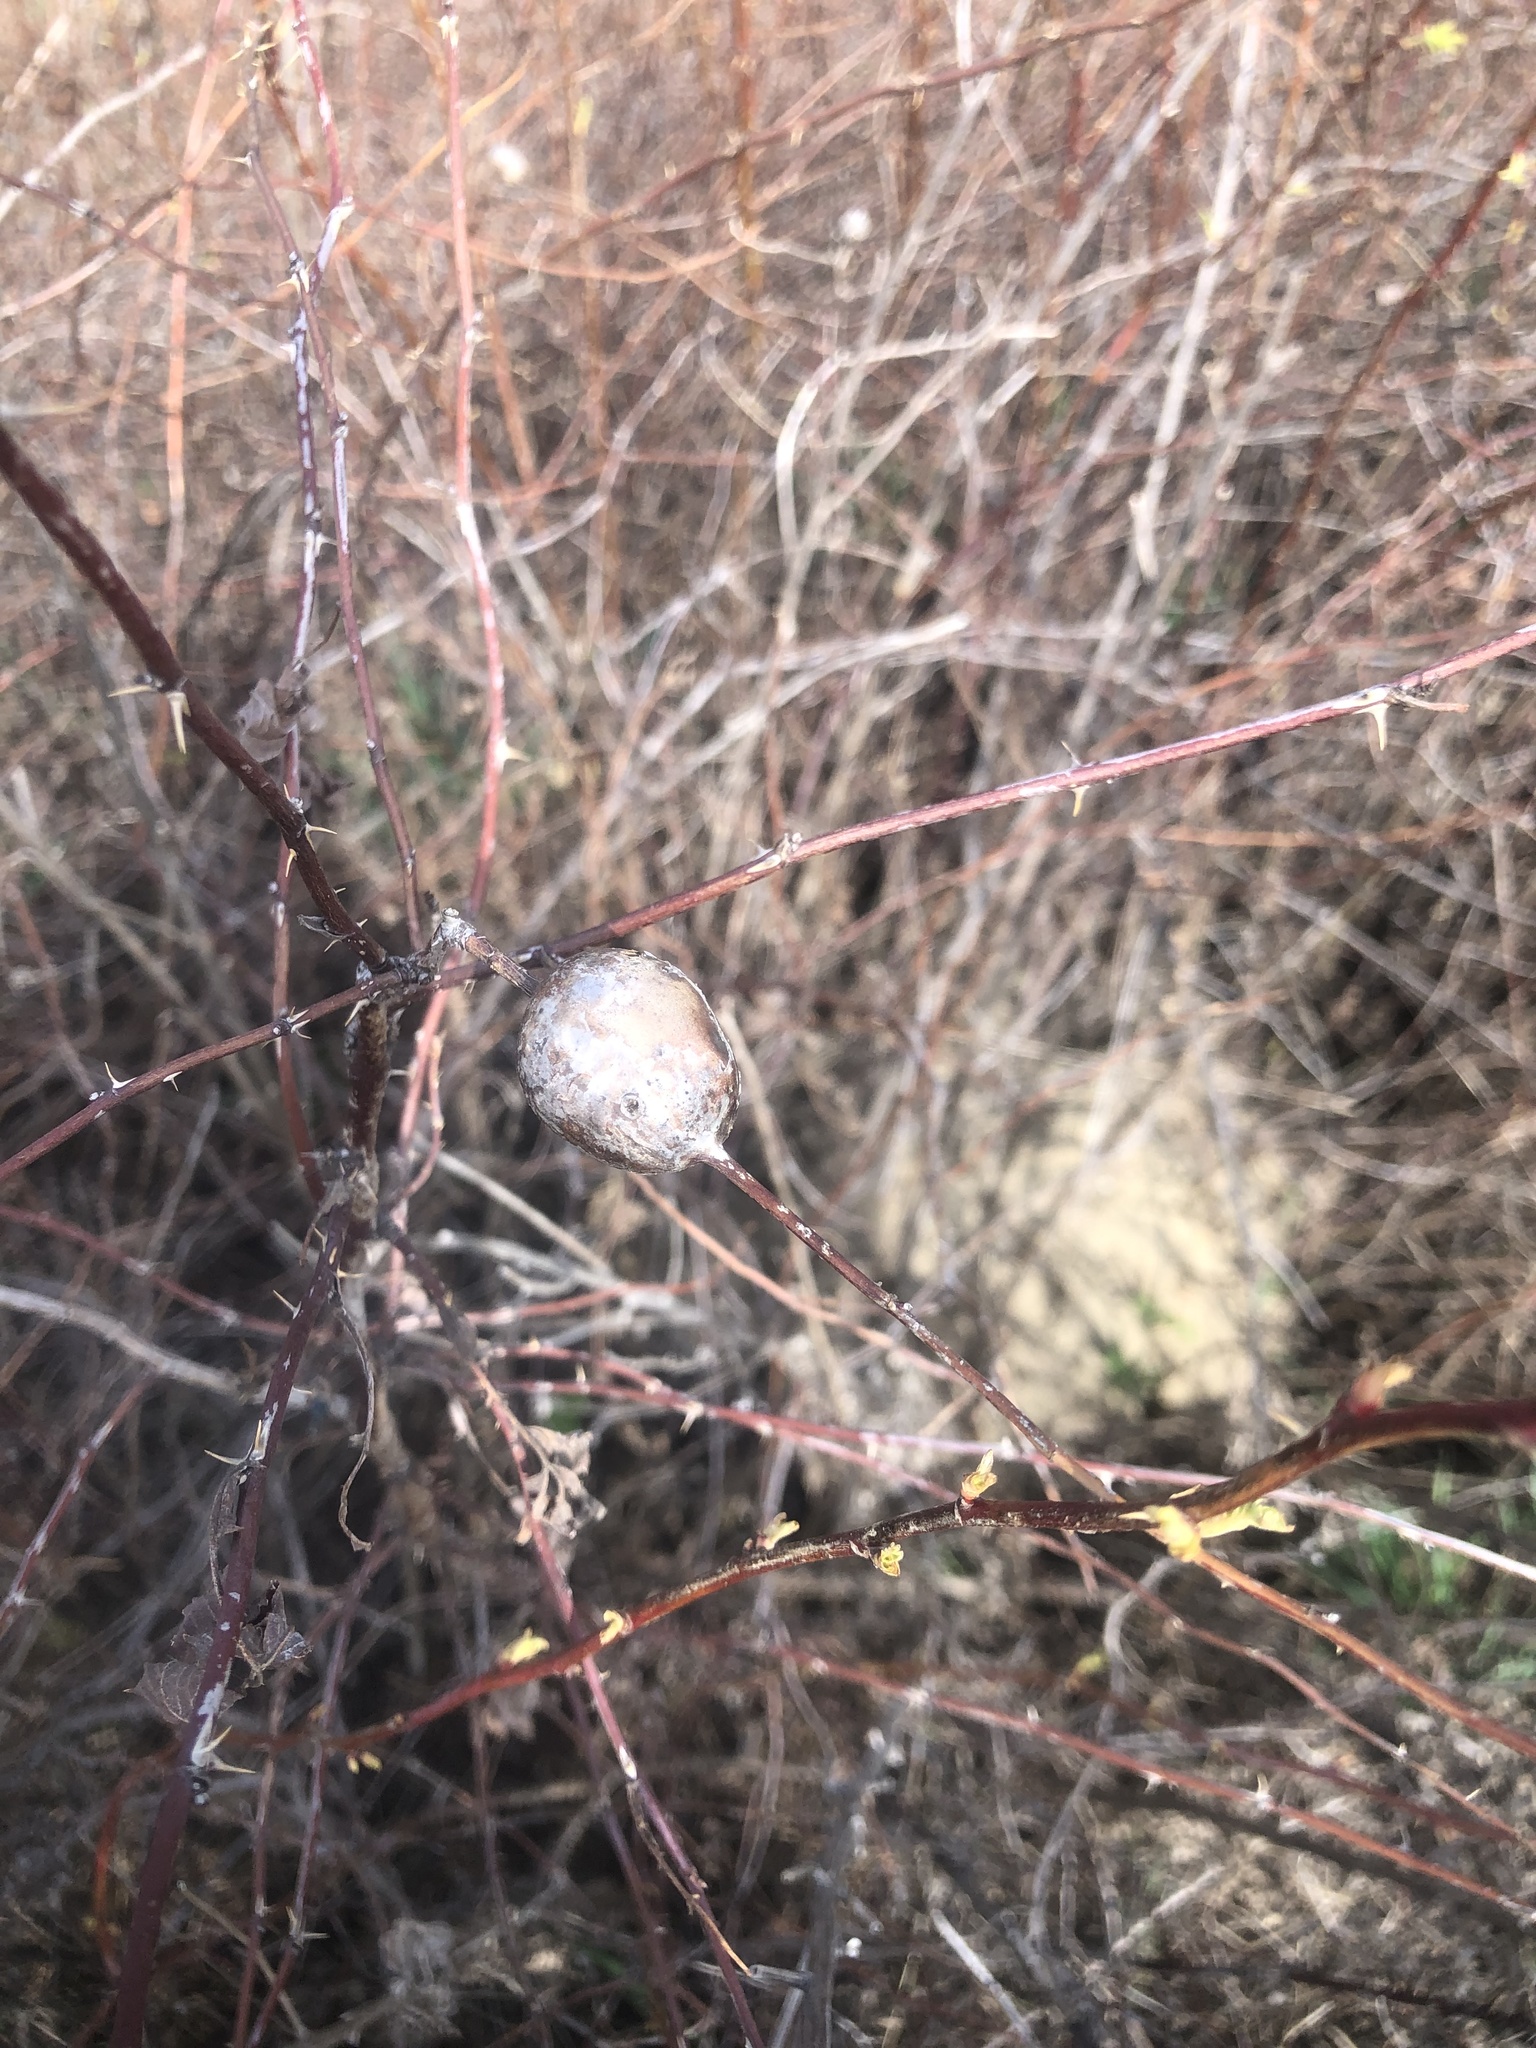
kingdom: Animalia
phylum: Arthropoda
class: Insecta
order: Hymenoptera
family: Cynipidae
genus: Diplolepis
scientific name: Diplolepis nodulosa
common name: Rose stem gall wasp
